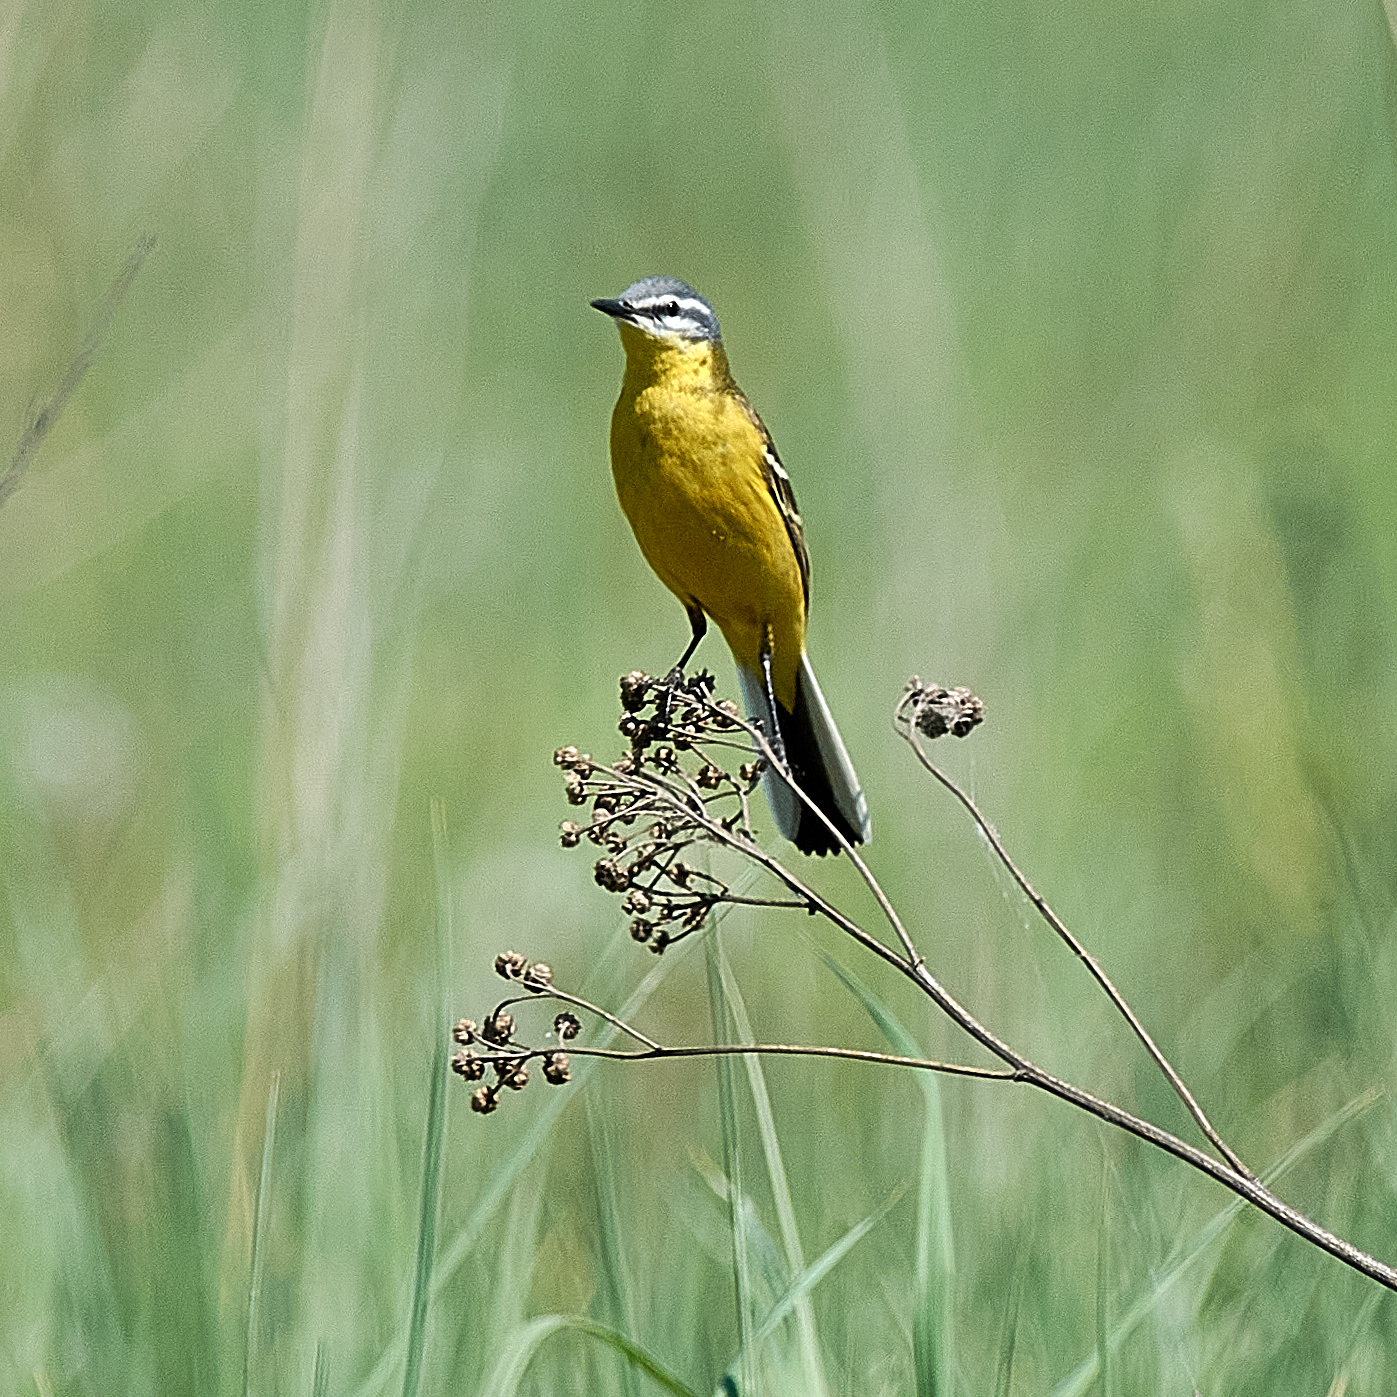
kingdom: Animalia
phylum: Chordata
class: Aves
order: Passeriformes
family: Motacillidae
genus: Motacilla
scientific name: Motacilla flava
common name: Western yellow wagtail
